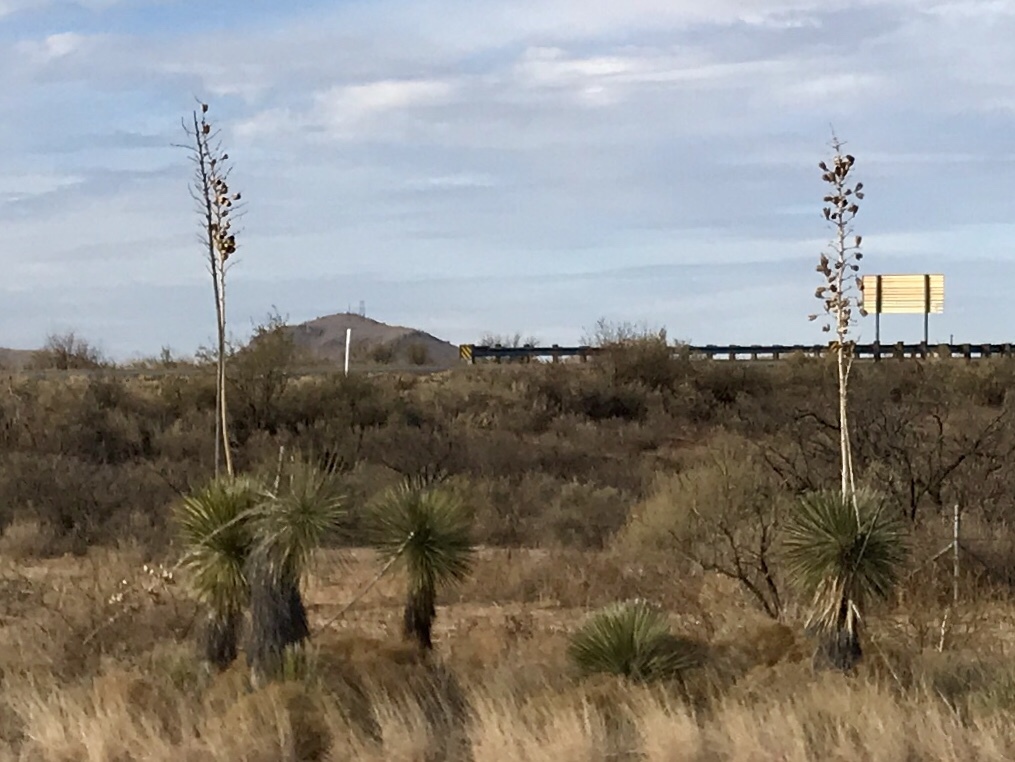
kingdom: Plantae
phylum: Tracheophyta
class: Liliopsida
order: Asparagales
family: Asparagaceae
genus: Yucca
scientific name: Yucca elata
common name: Palmella
